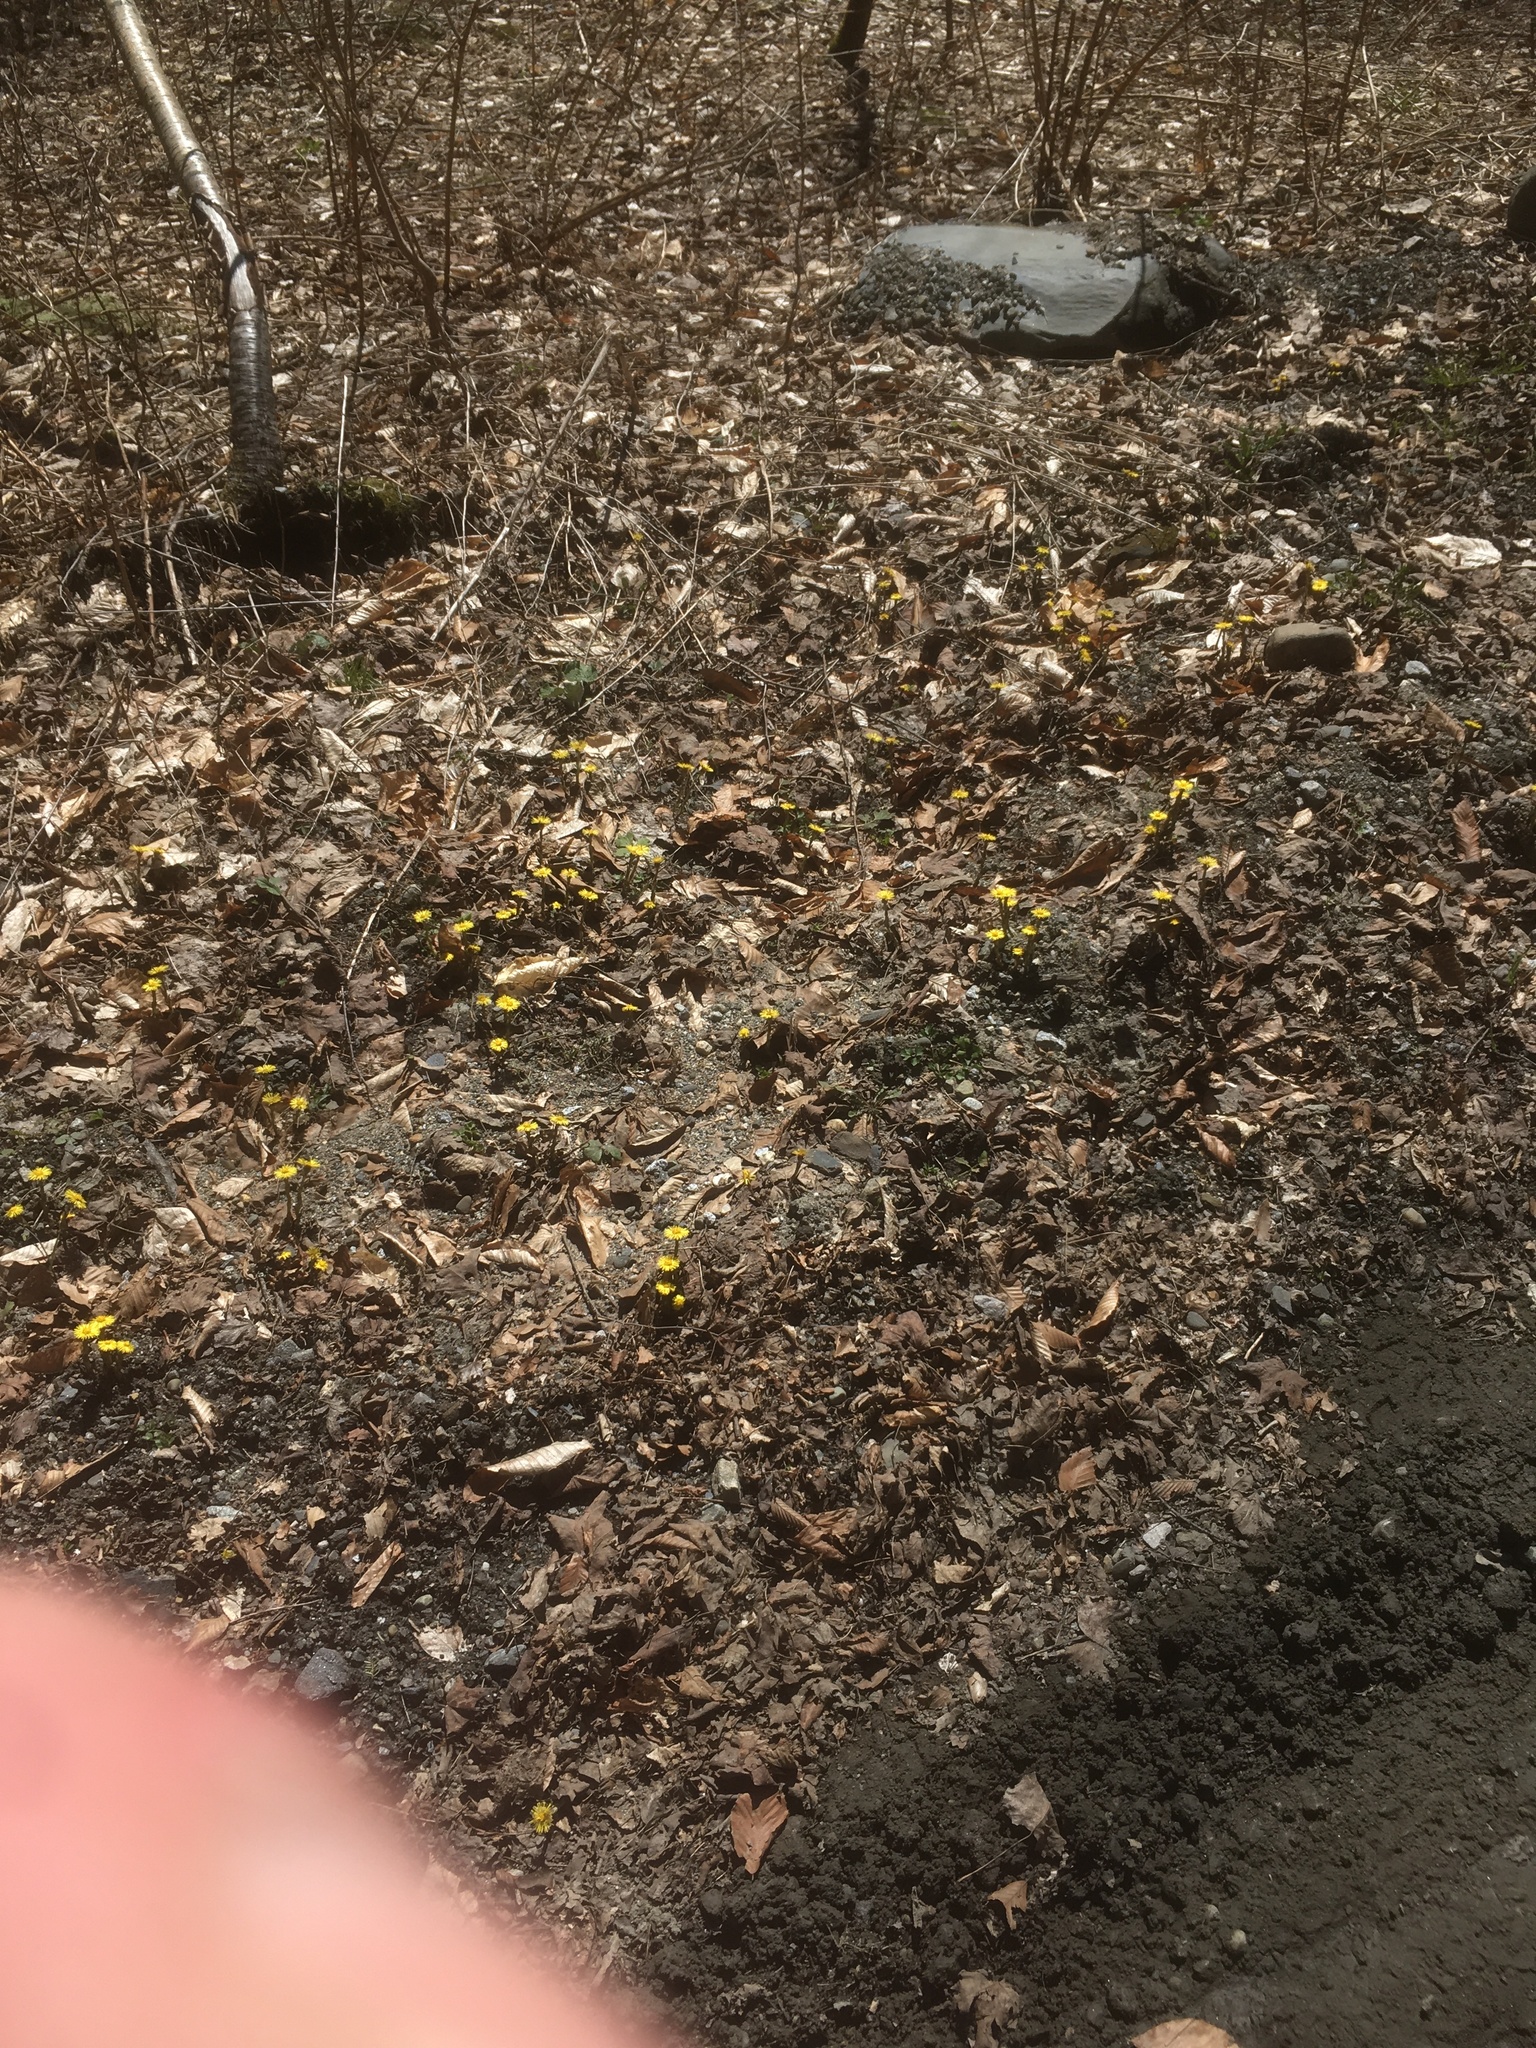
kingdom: Plantae
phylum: Tracheophyta
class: Magnoliopsida
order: Asterales
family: Asteraceae
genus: Tussilago
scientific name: Tussilago farfara
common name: Coltsfoot
